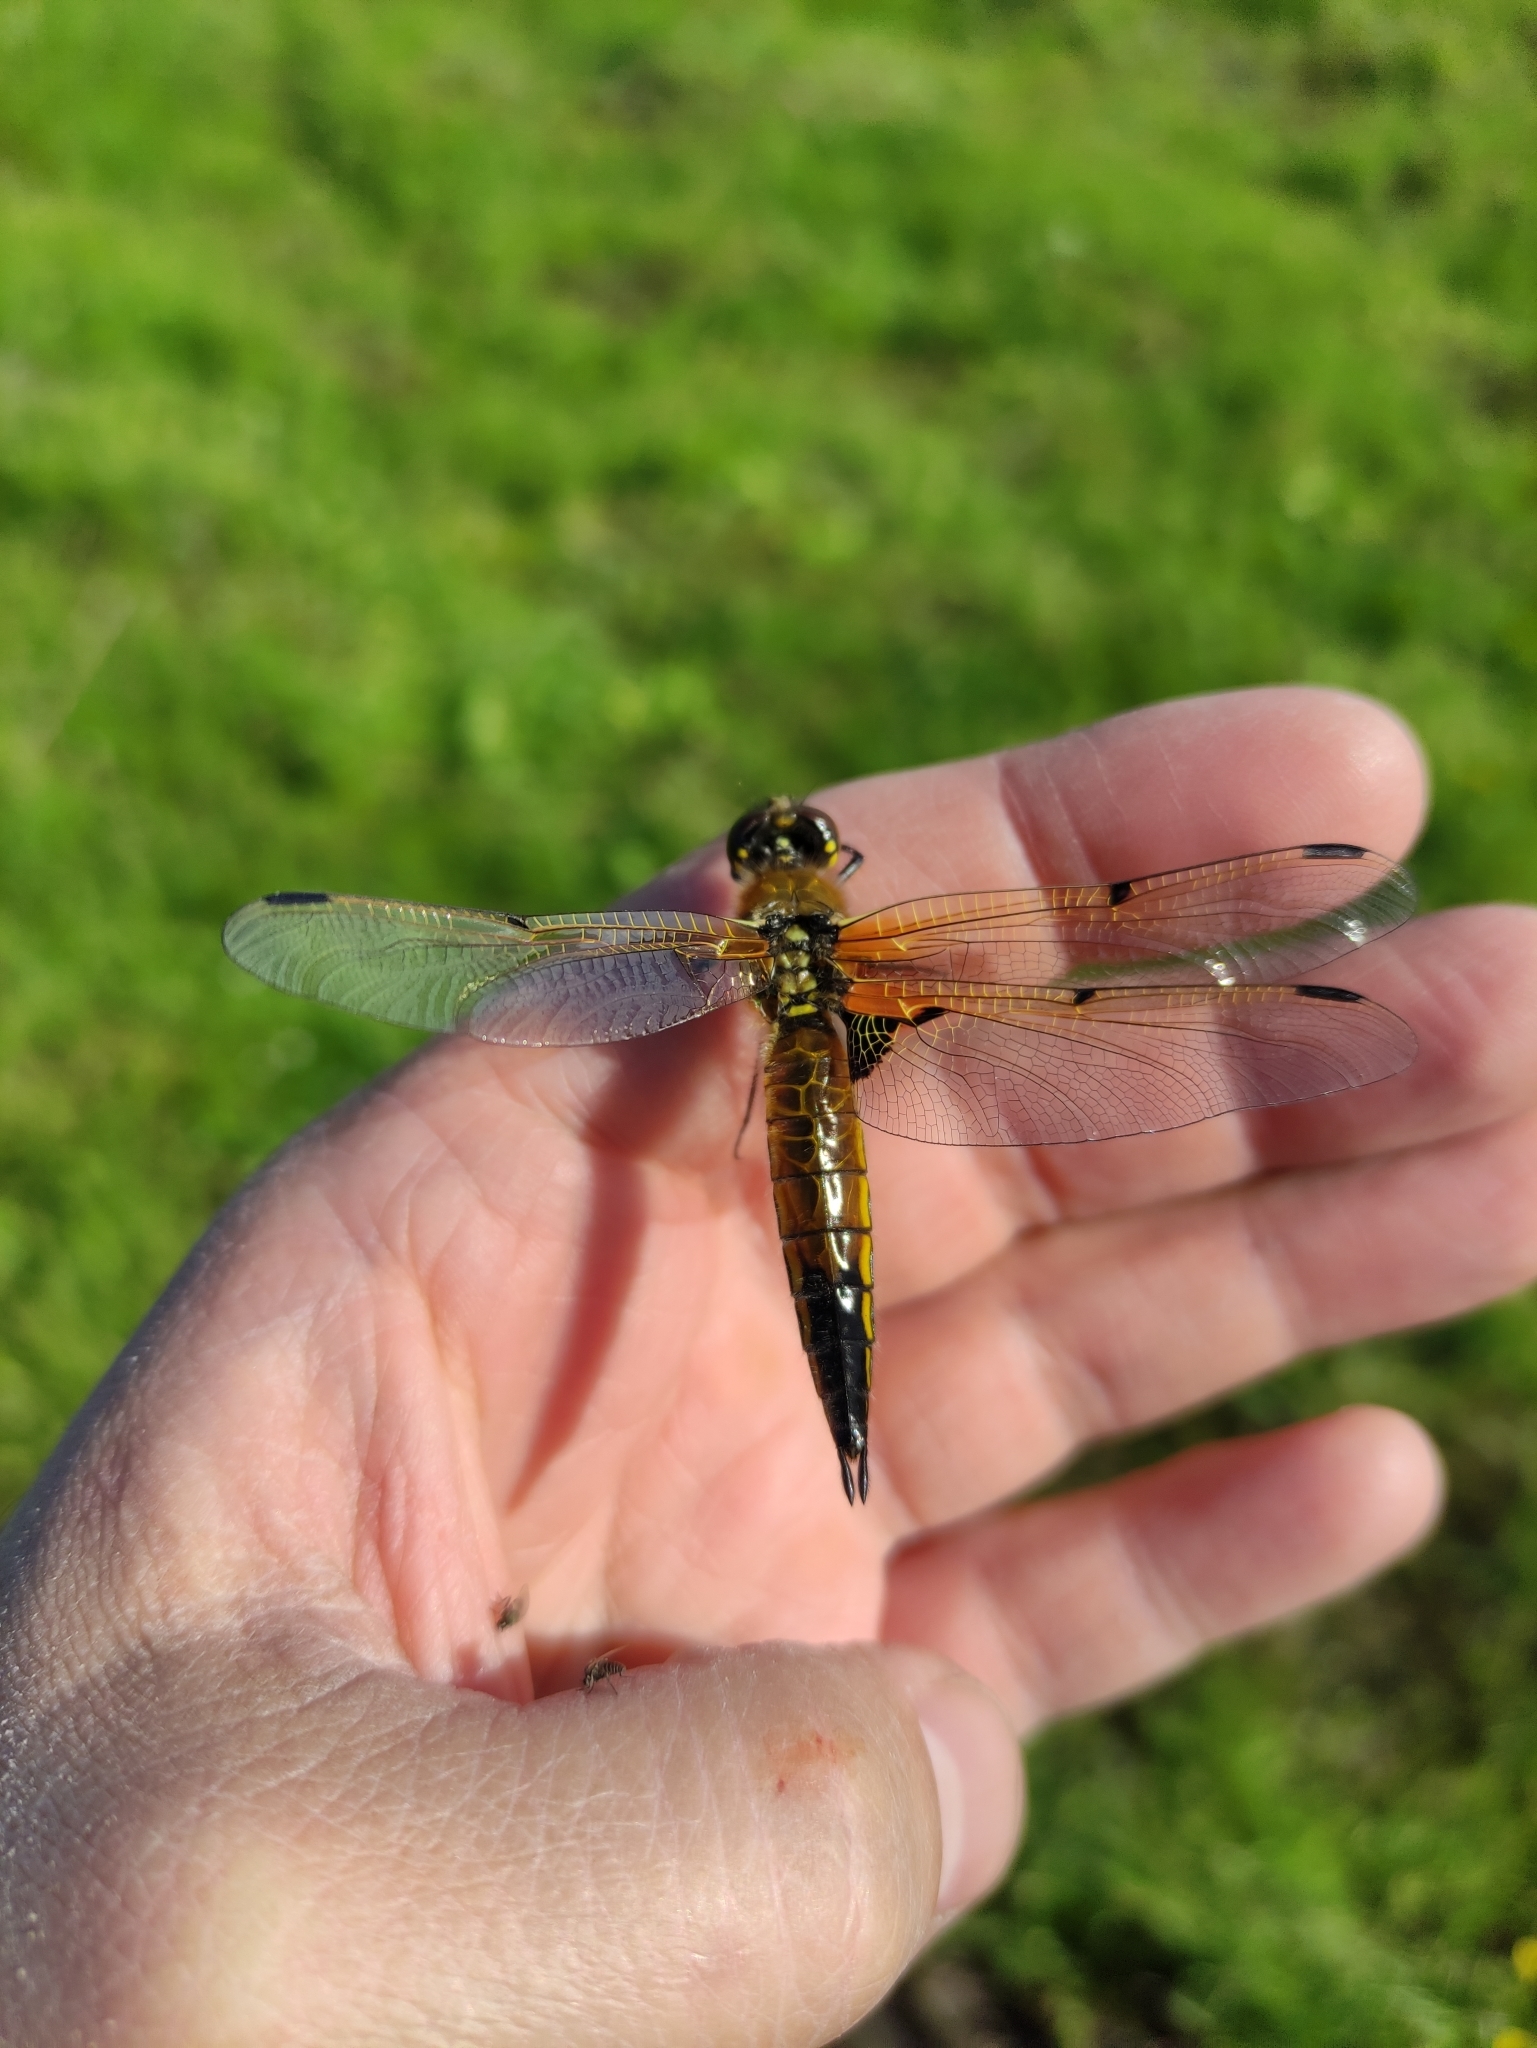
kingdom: Animalia
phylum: Arthropoda
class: Insecta
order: Odonata
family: Libellulidae
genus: Libellula
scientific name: Libellula quadrimaculata
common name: Four-spotted chaser
